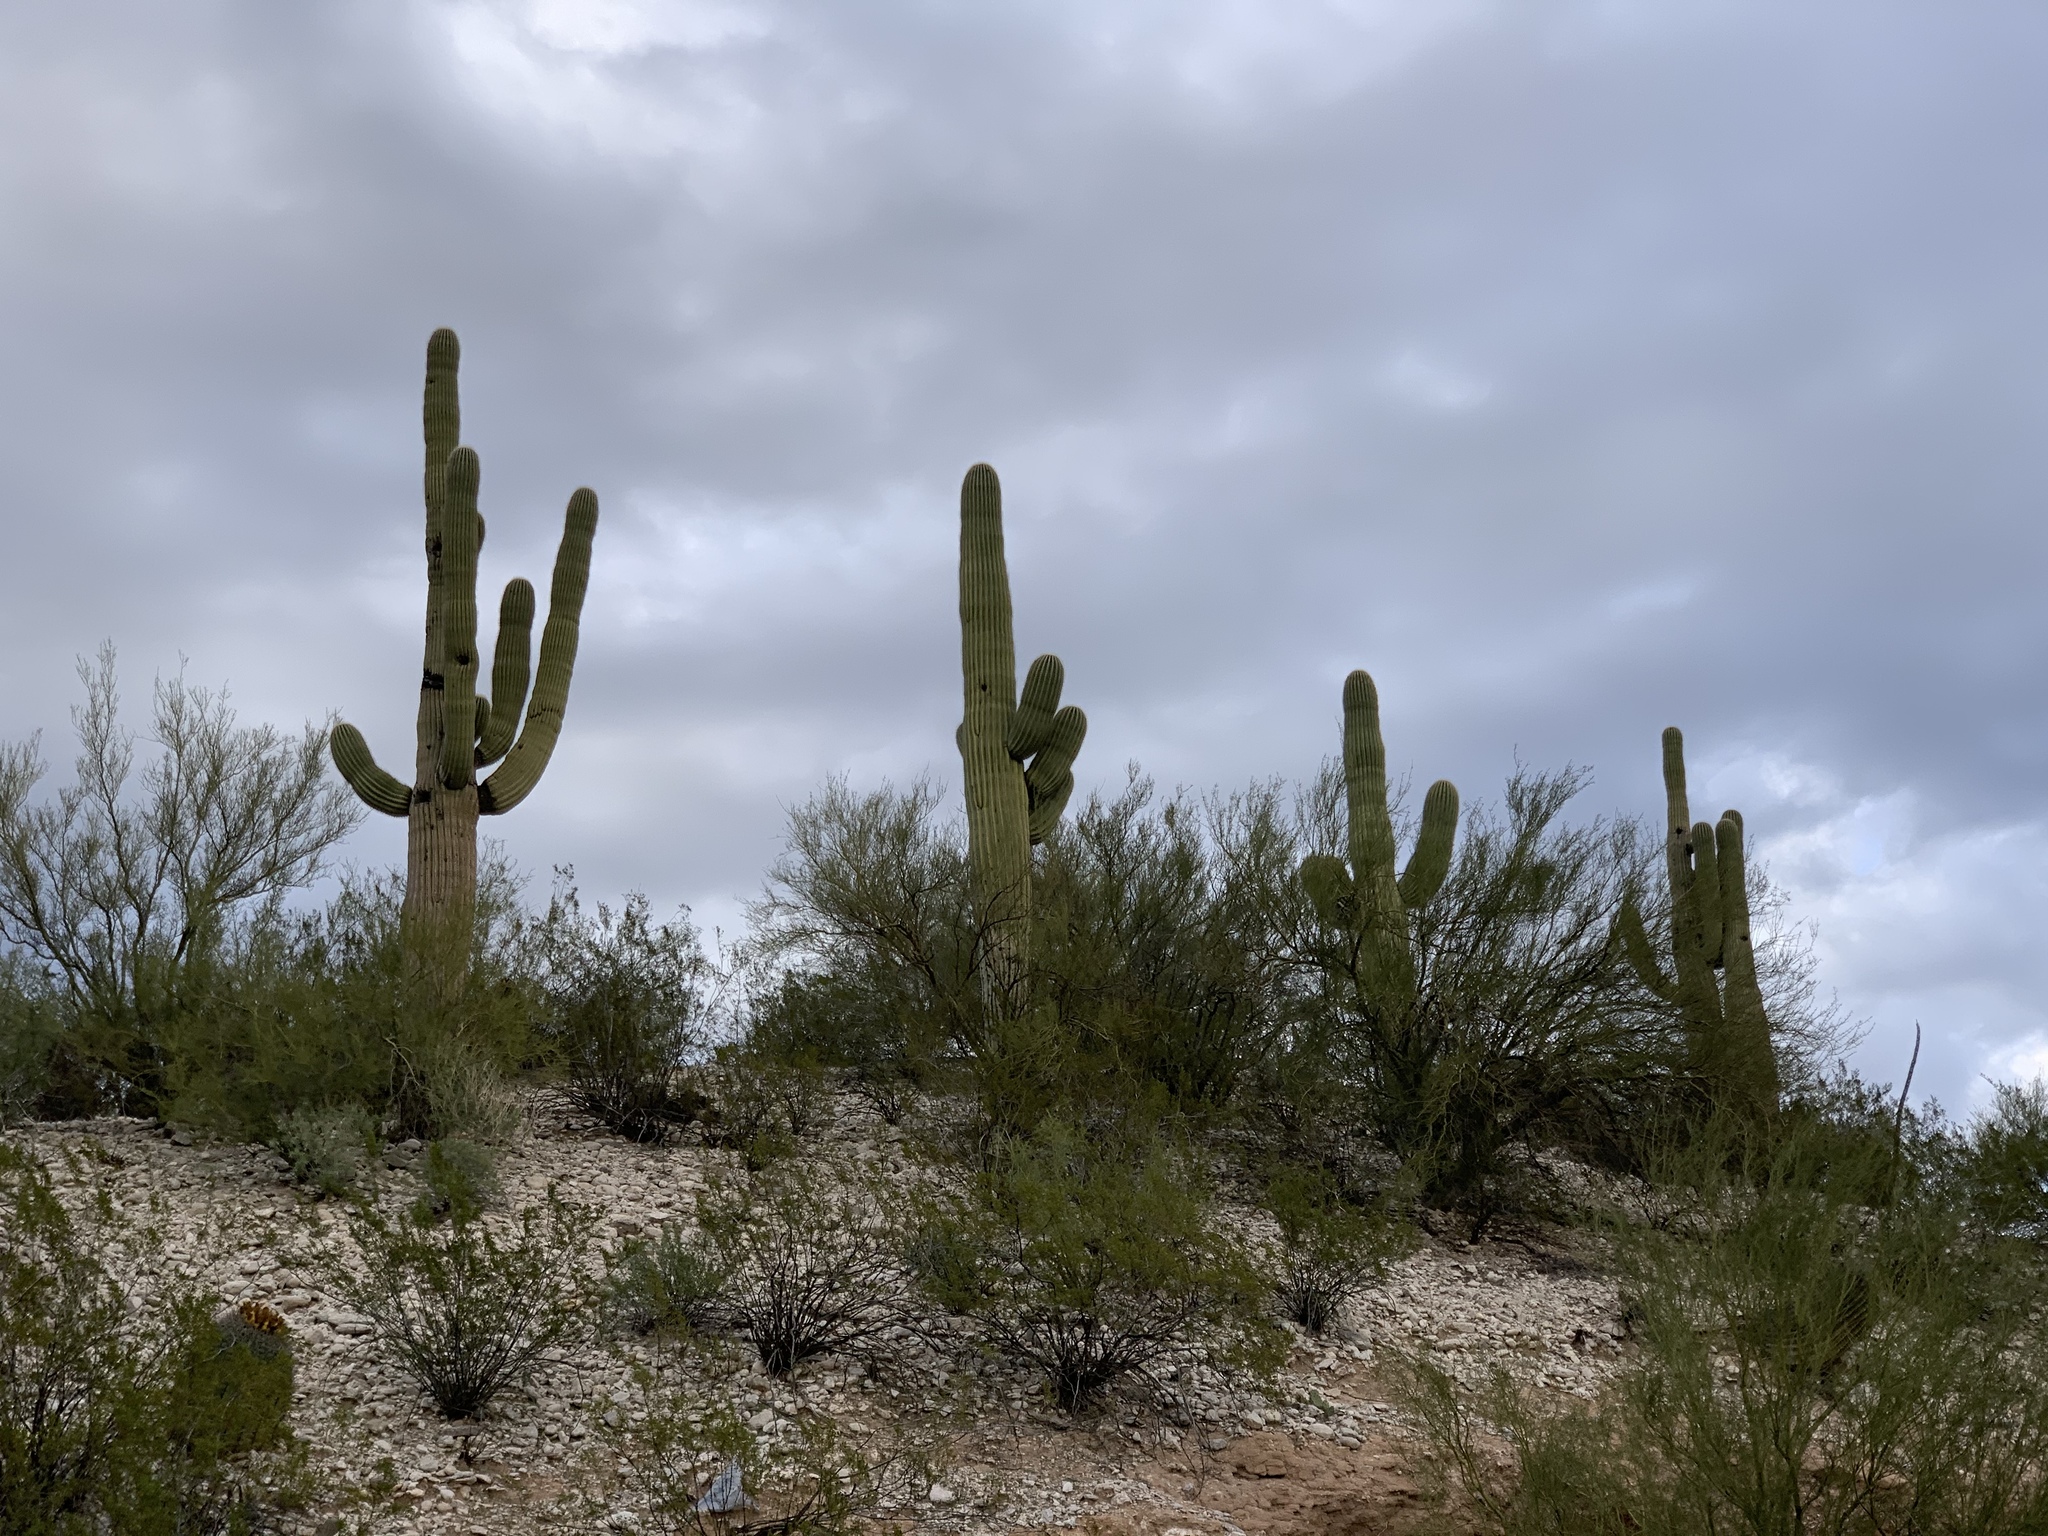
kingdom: Plantae
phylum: Tracheophyta
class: Magnoliopsida
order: Caryophyllales
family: Cactaceae
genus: Carnegiea
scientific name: Carnegiea gigantea
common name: Saguaro
